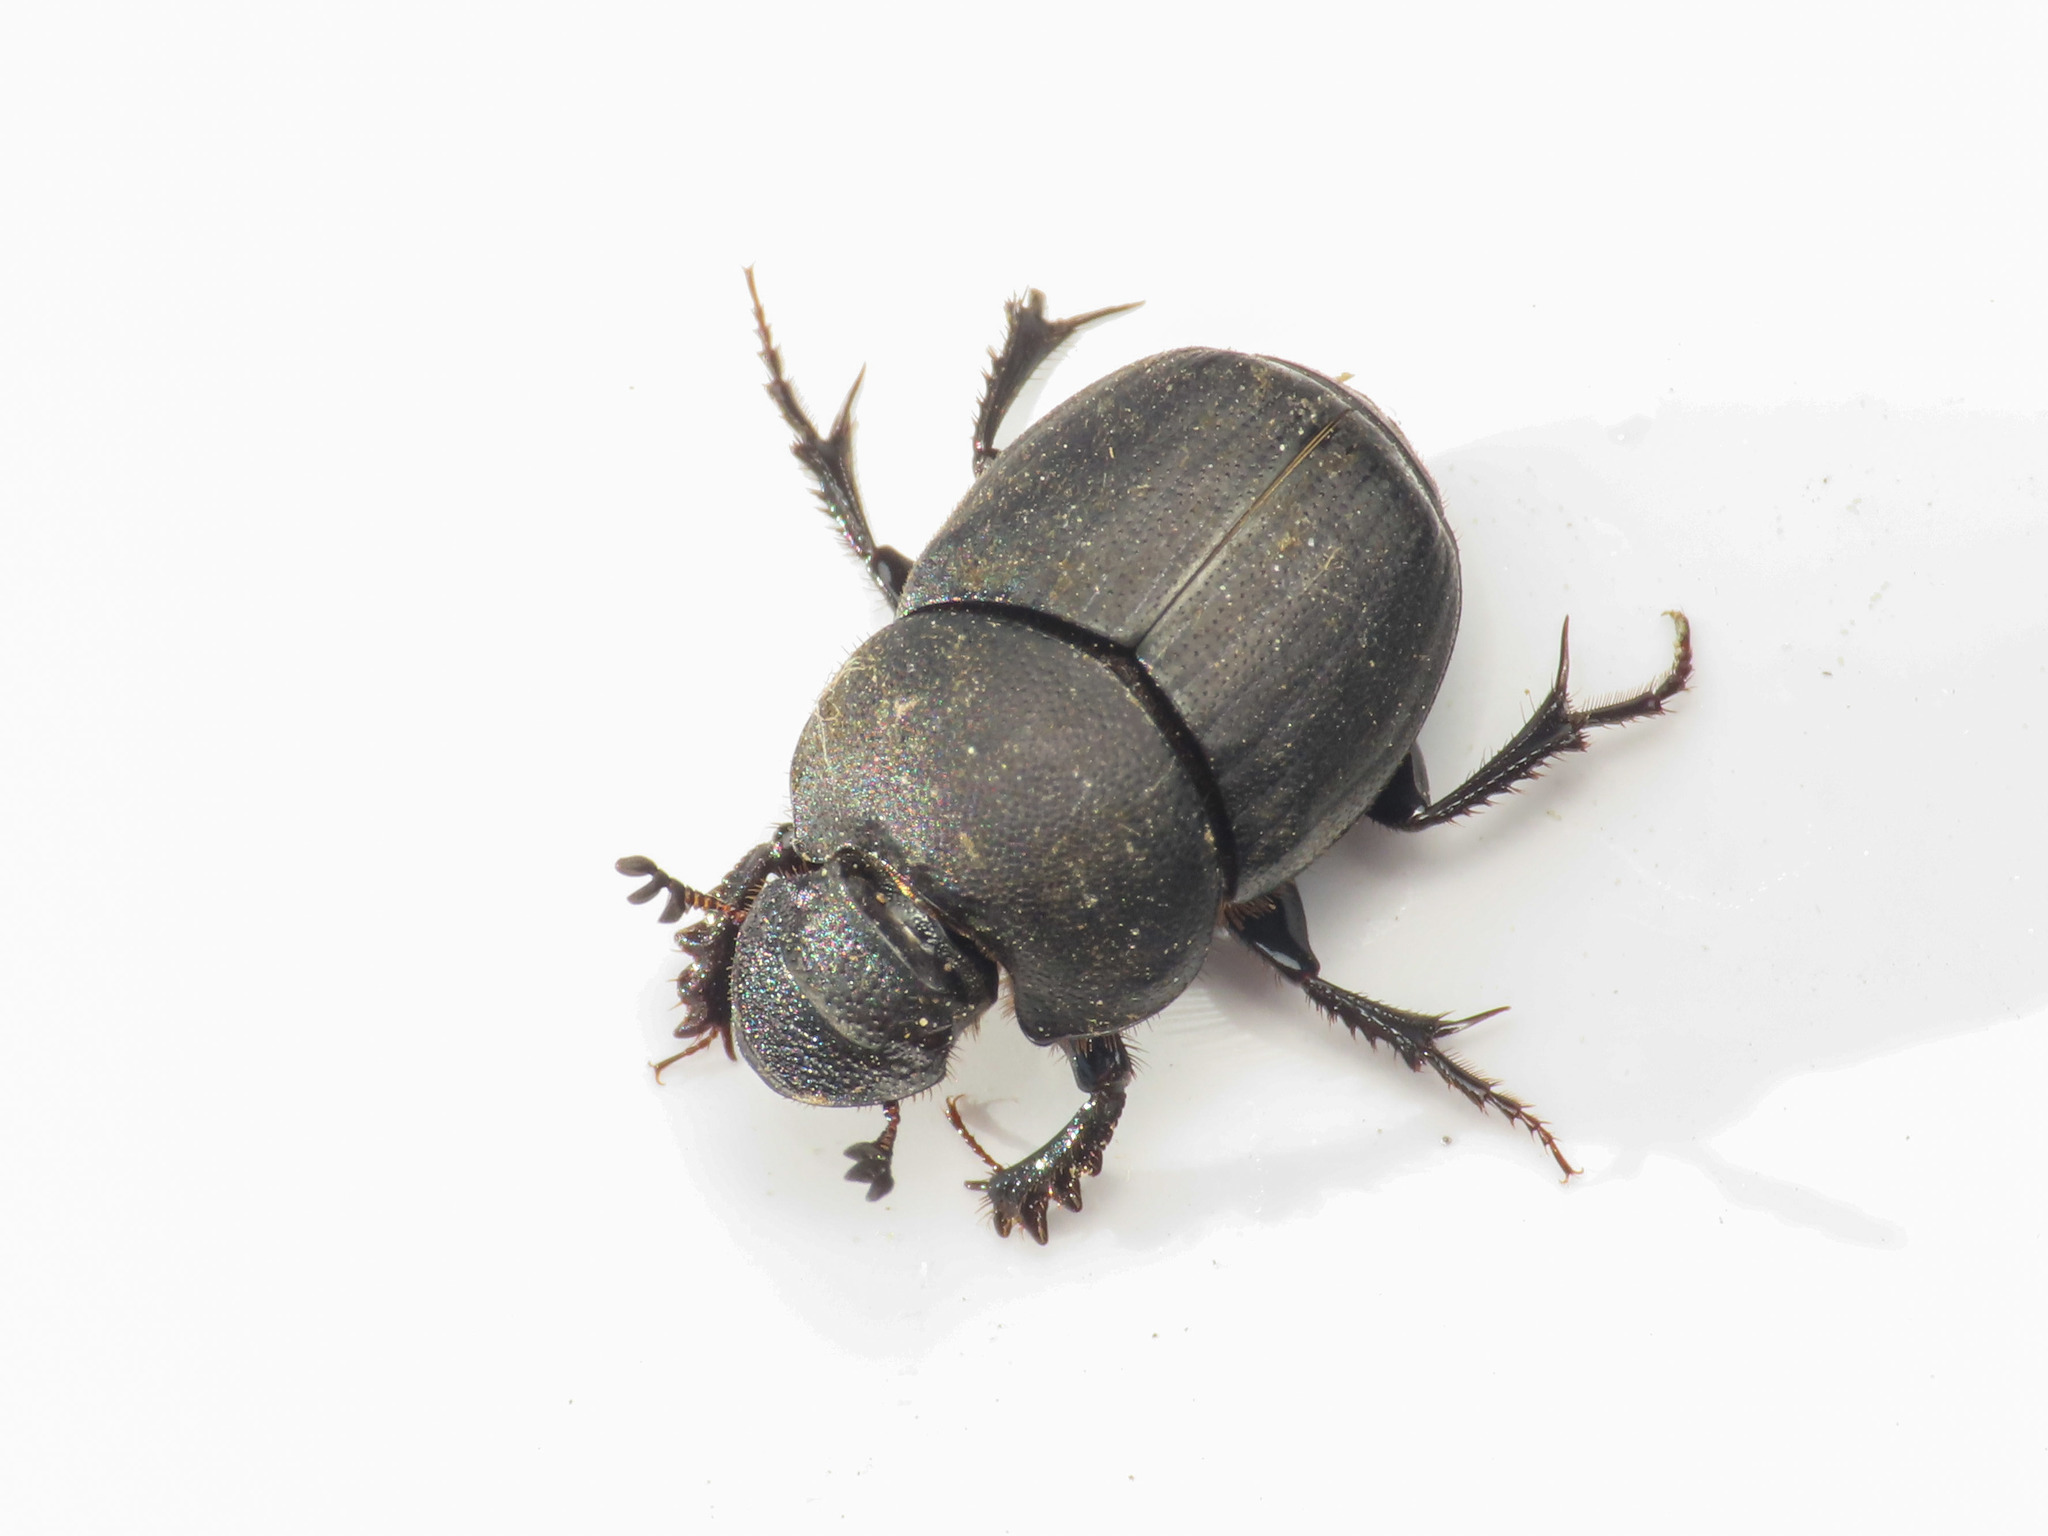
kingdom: Animalia
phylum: Arthropoda
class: Insecta
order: Coleoptera
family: Scarabaeidae
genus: Onthophagus
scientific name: Onthophagus verticicornis
